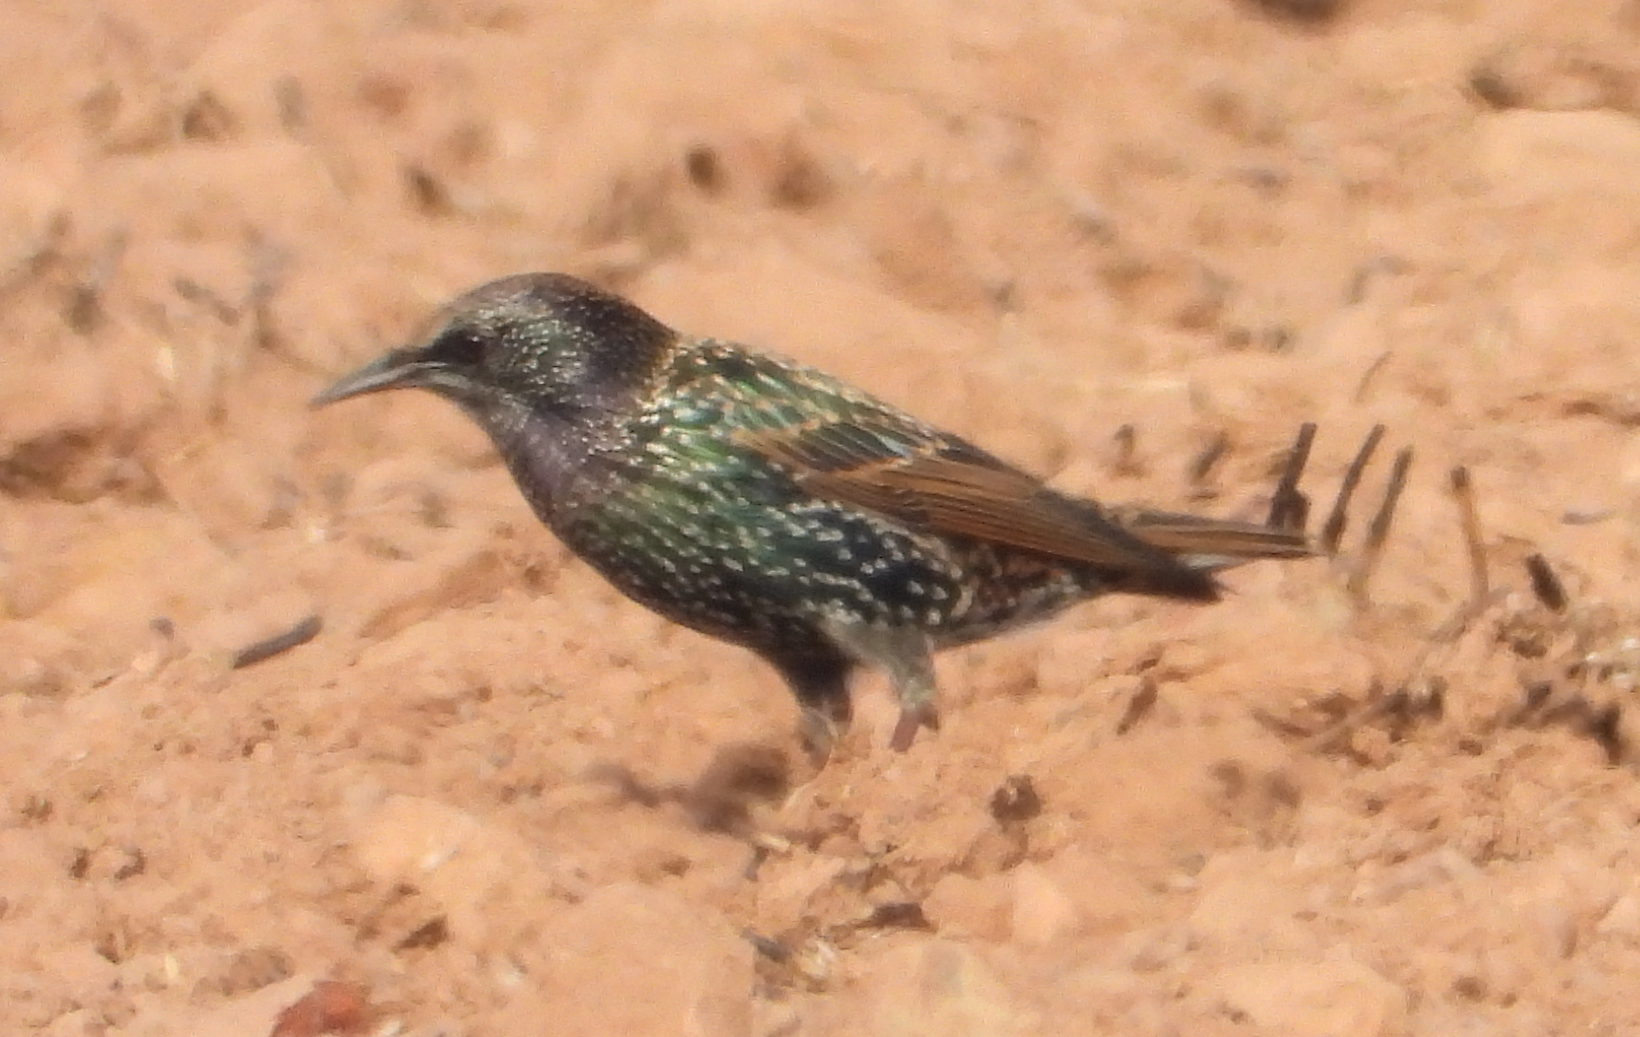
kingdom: Animalia
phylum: Chordata
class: Aves
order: Passeriformes
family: Sturnidae
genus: Sturnus
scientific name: Sturnus vulgaris
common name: Common starling
